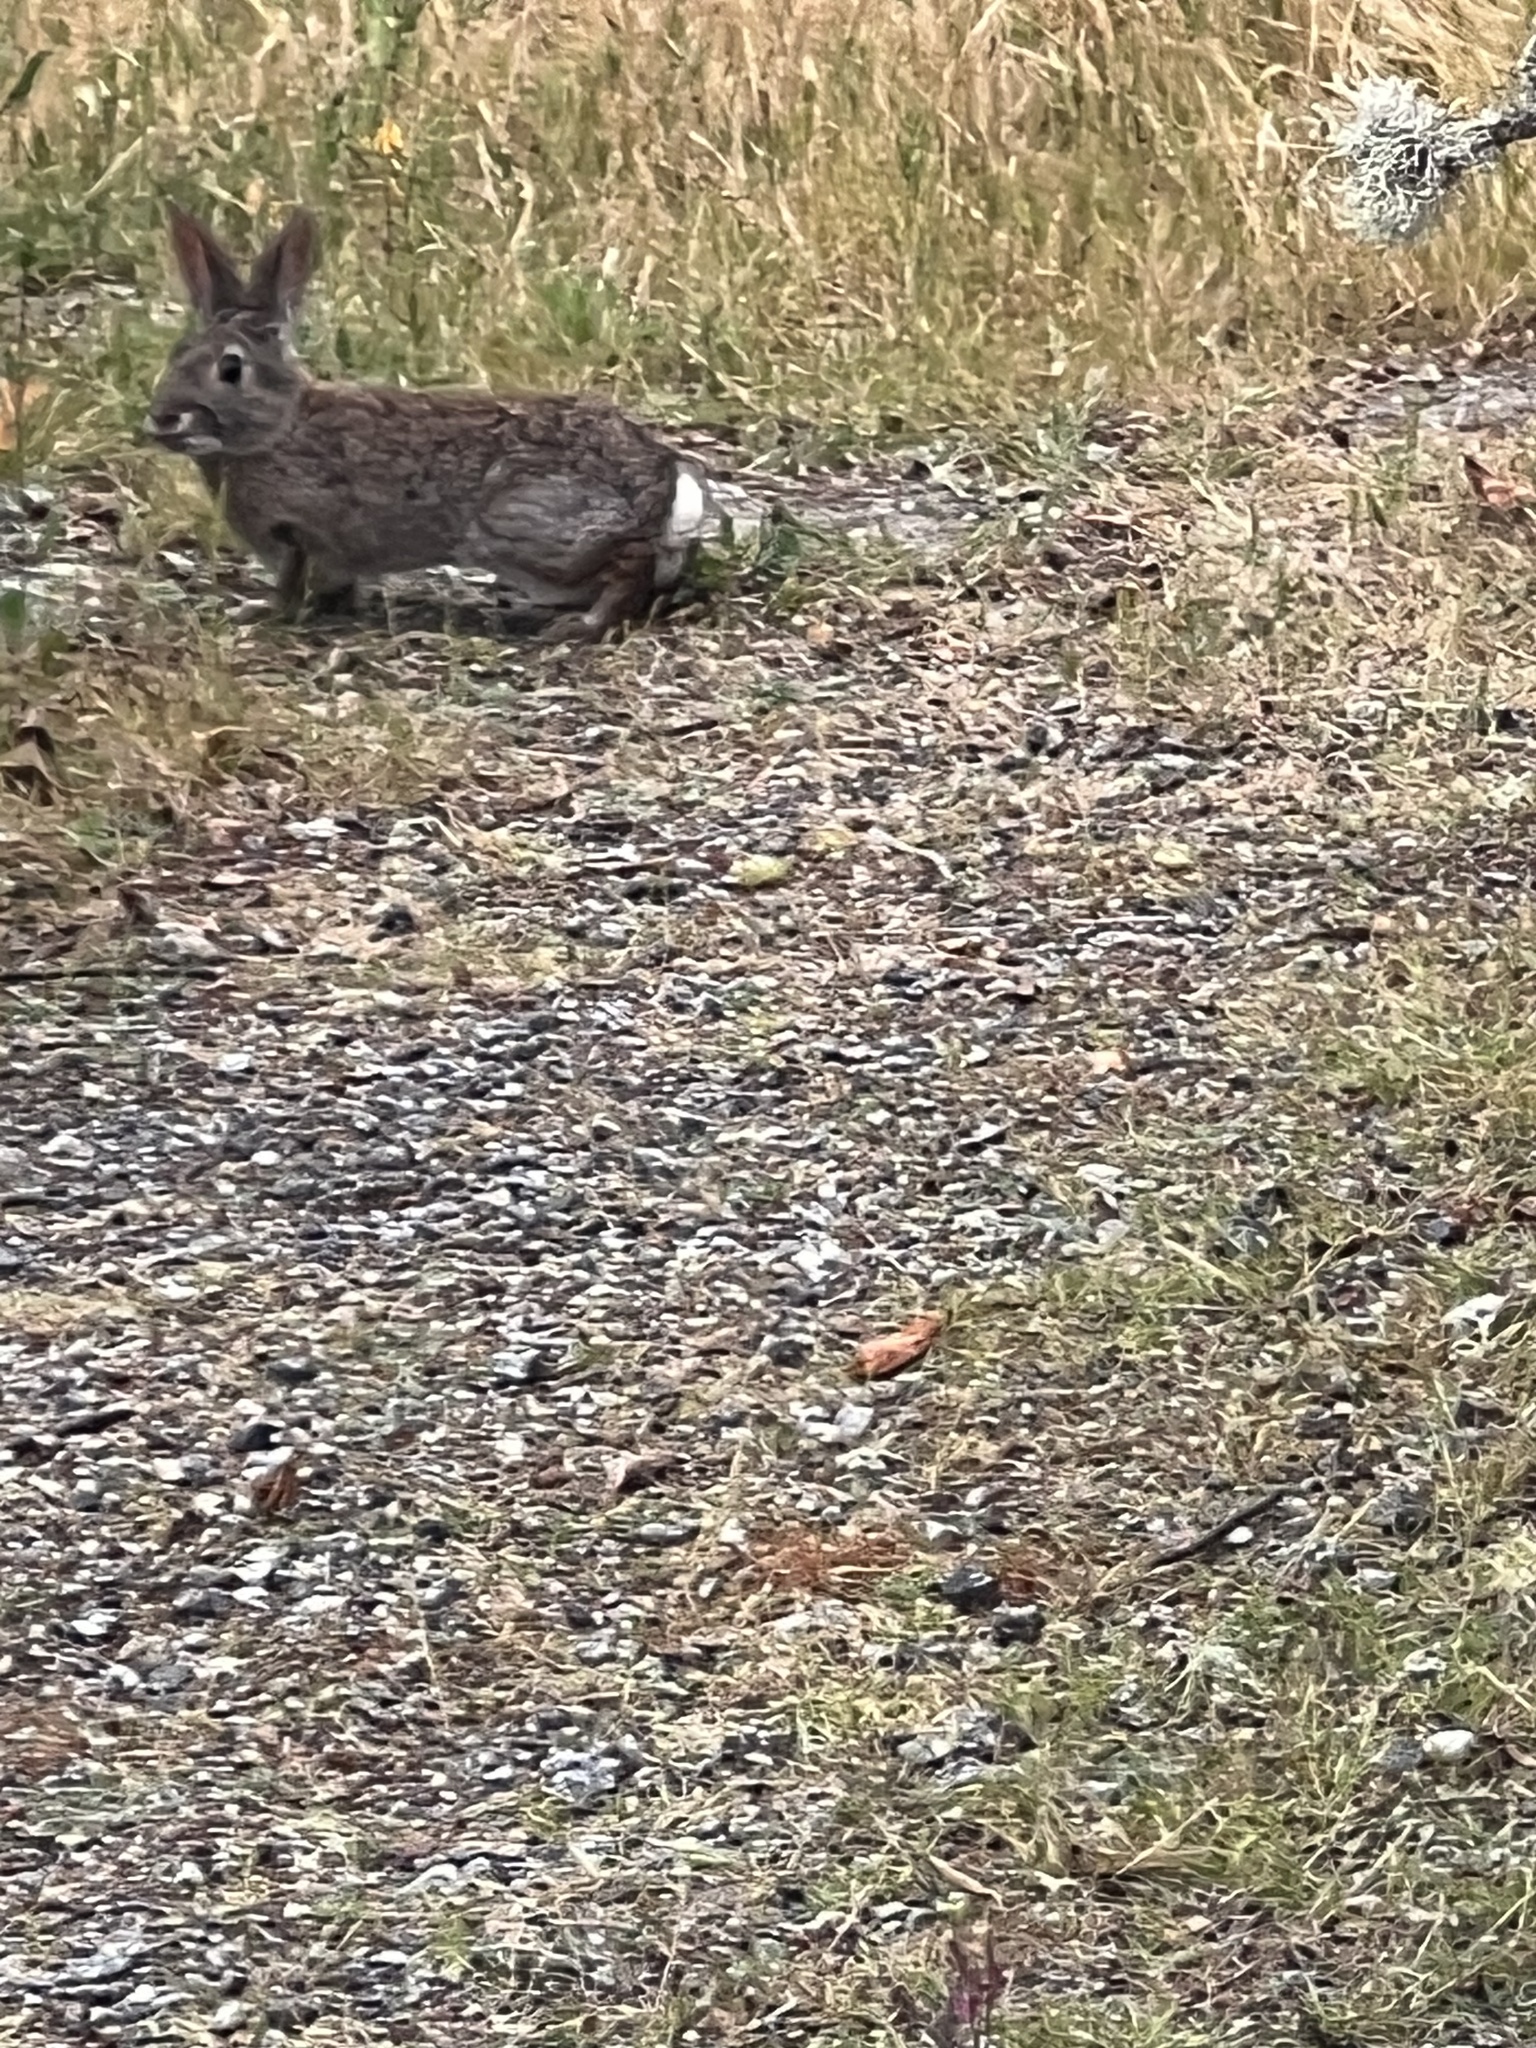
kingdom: Animalia
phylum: Chordata
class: Mammalia
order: Lagomorpha
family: Leporidae
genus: Sylvilagus
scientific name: Sylvilagus bachmani
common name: Brush rabbit
